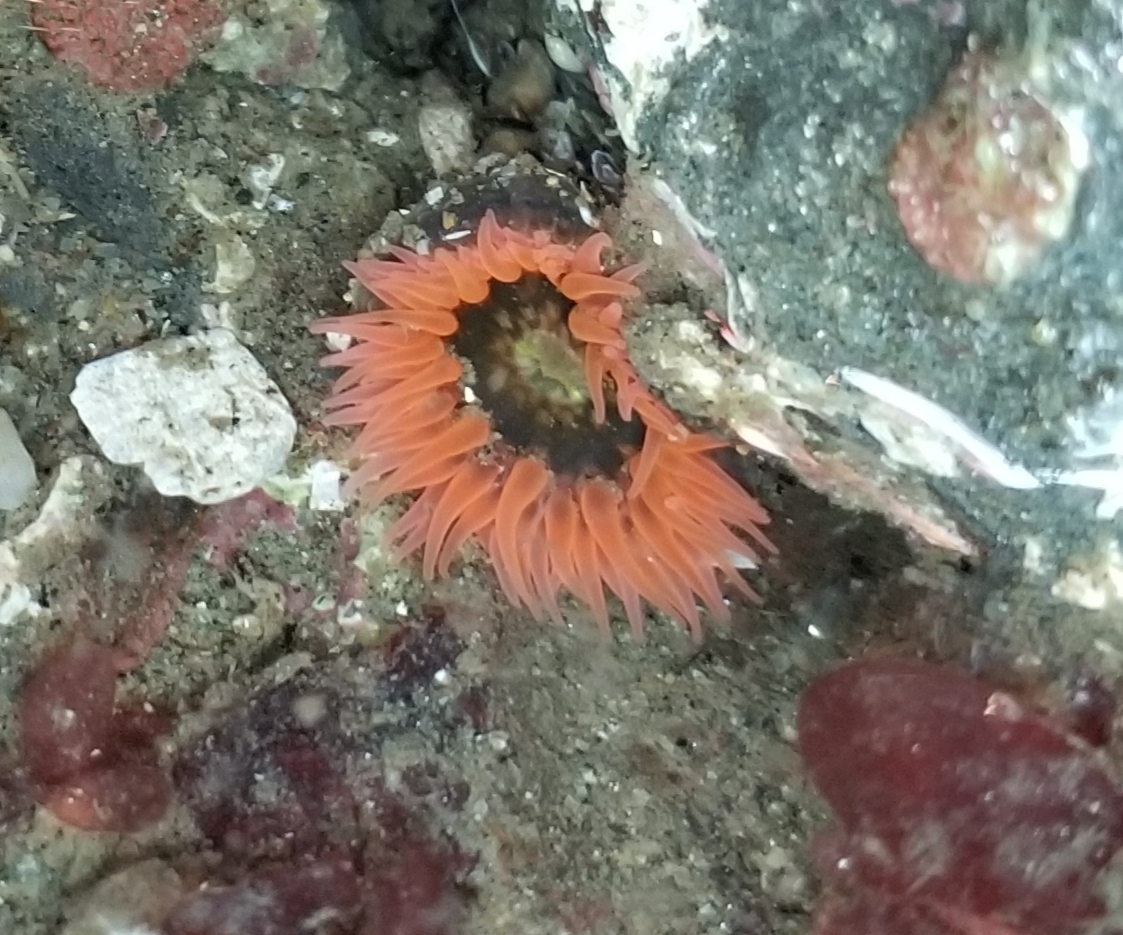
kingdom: Animalia
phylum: Cnidaria
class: Anthozoa
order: Actiniaria
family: Actiniidae
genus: Anthopleura
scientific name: Anthopleura artemisia
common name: Buried sea anemone
